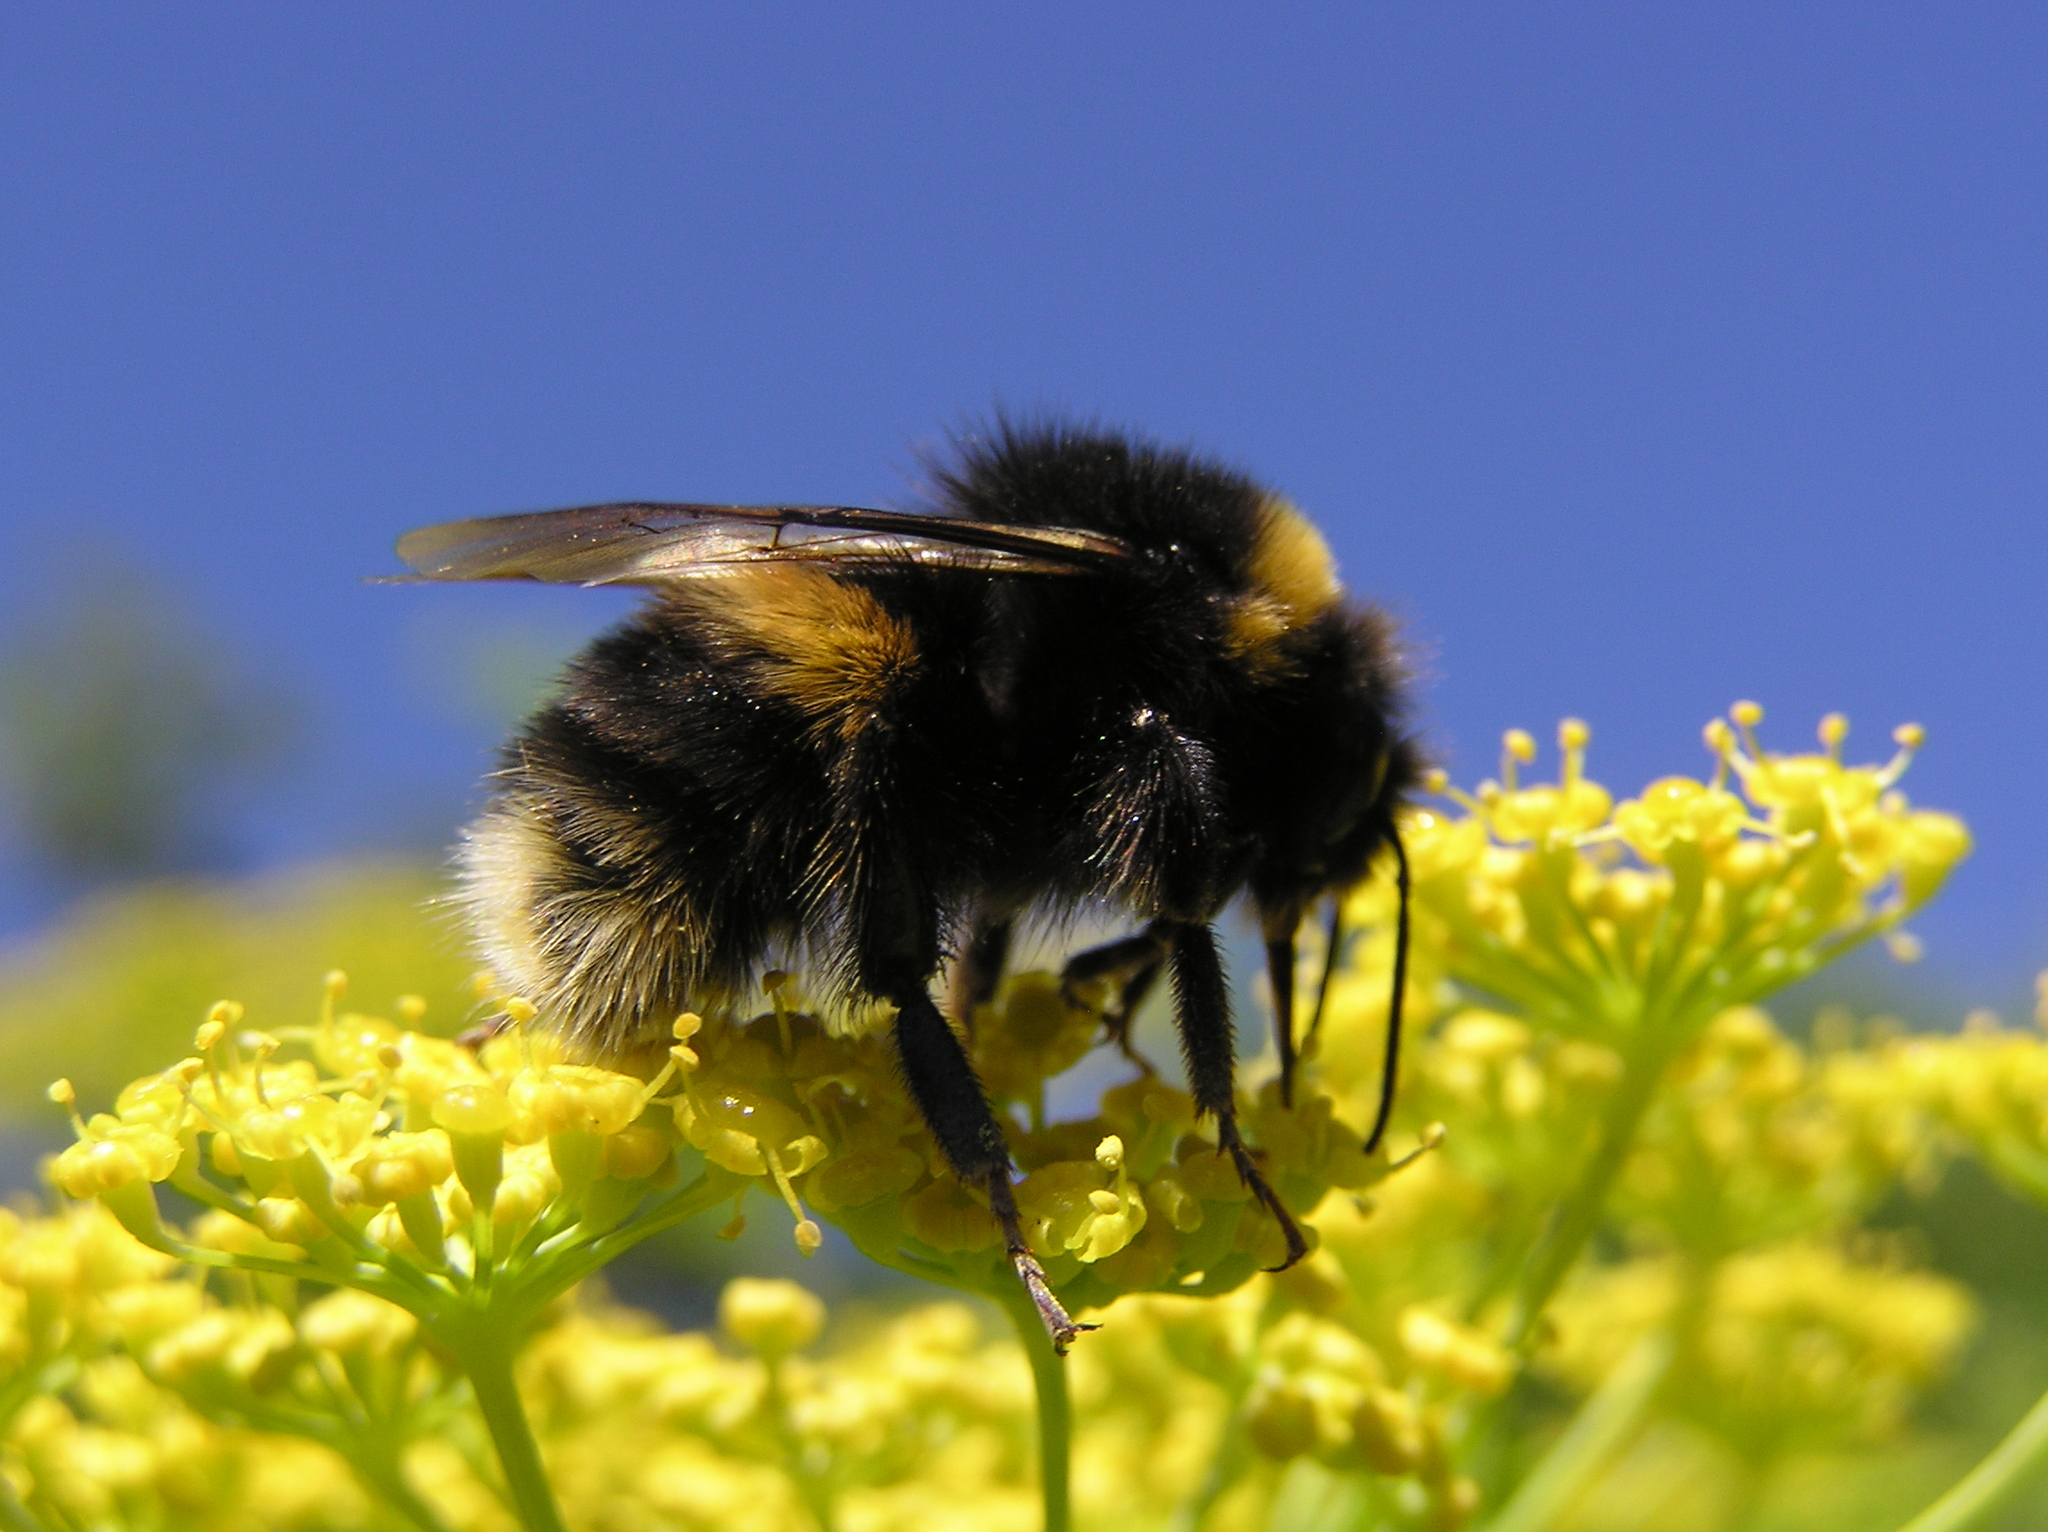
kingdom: Animalia
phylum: Arthropoda
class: Insecta
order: Hymenoptera
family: Apidae
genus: Bombus
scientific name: Bombus terrestris
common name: Buff-tailed bumblebee
